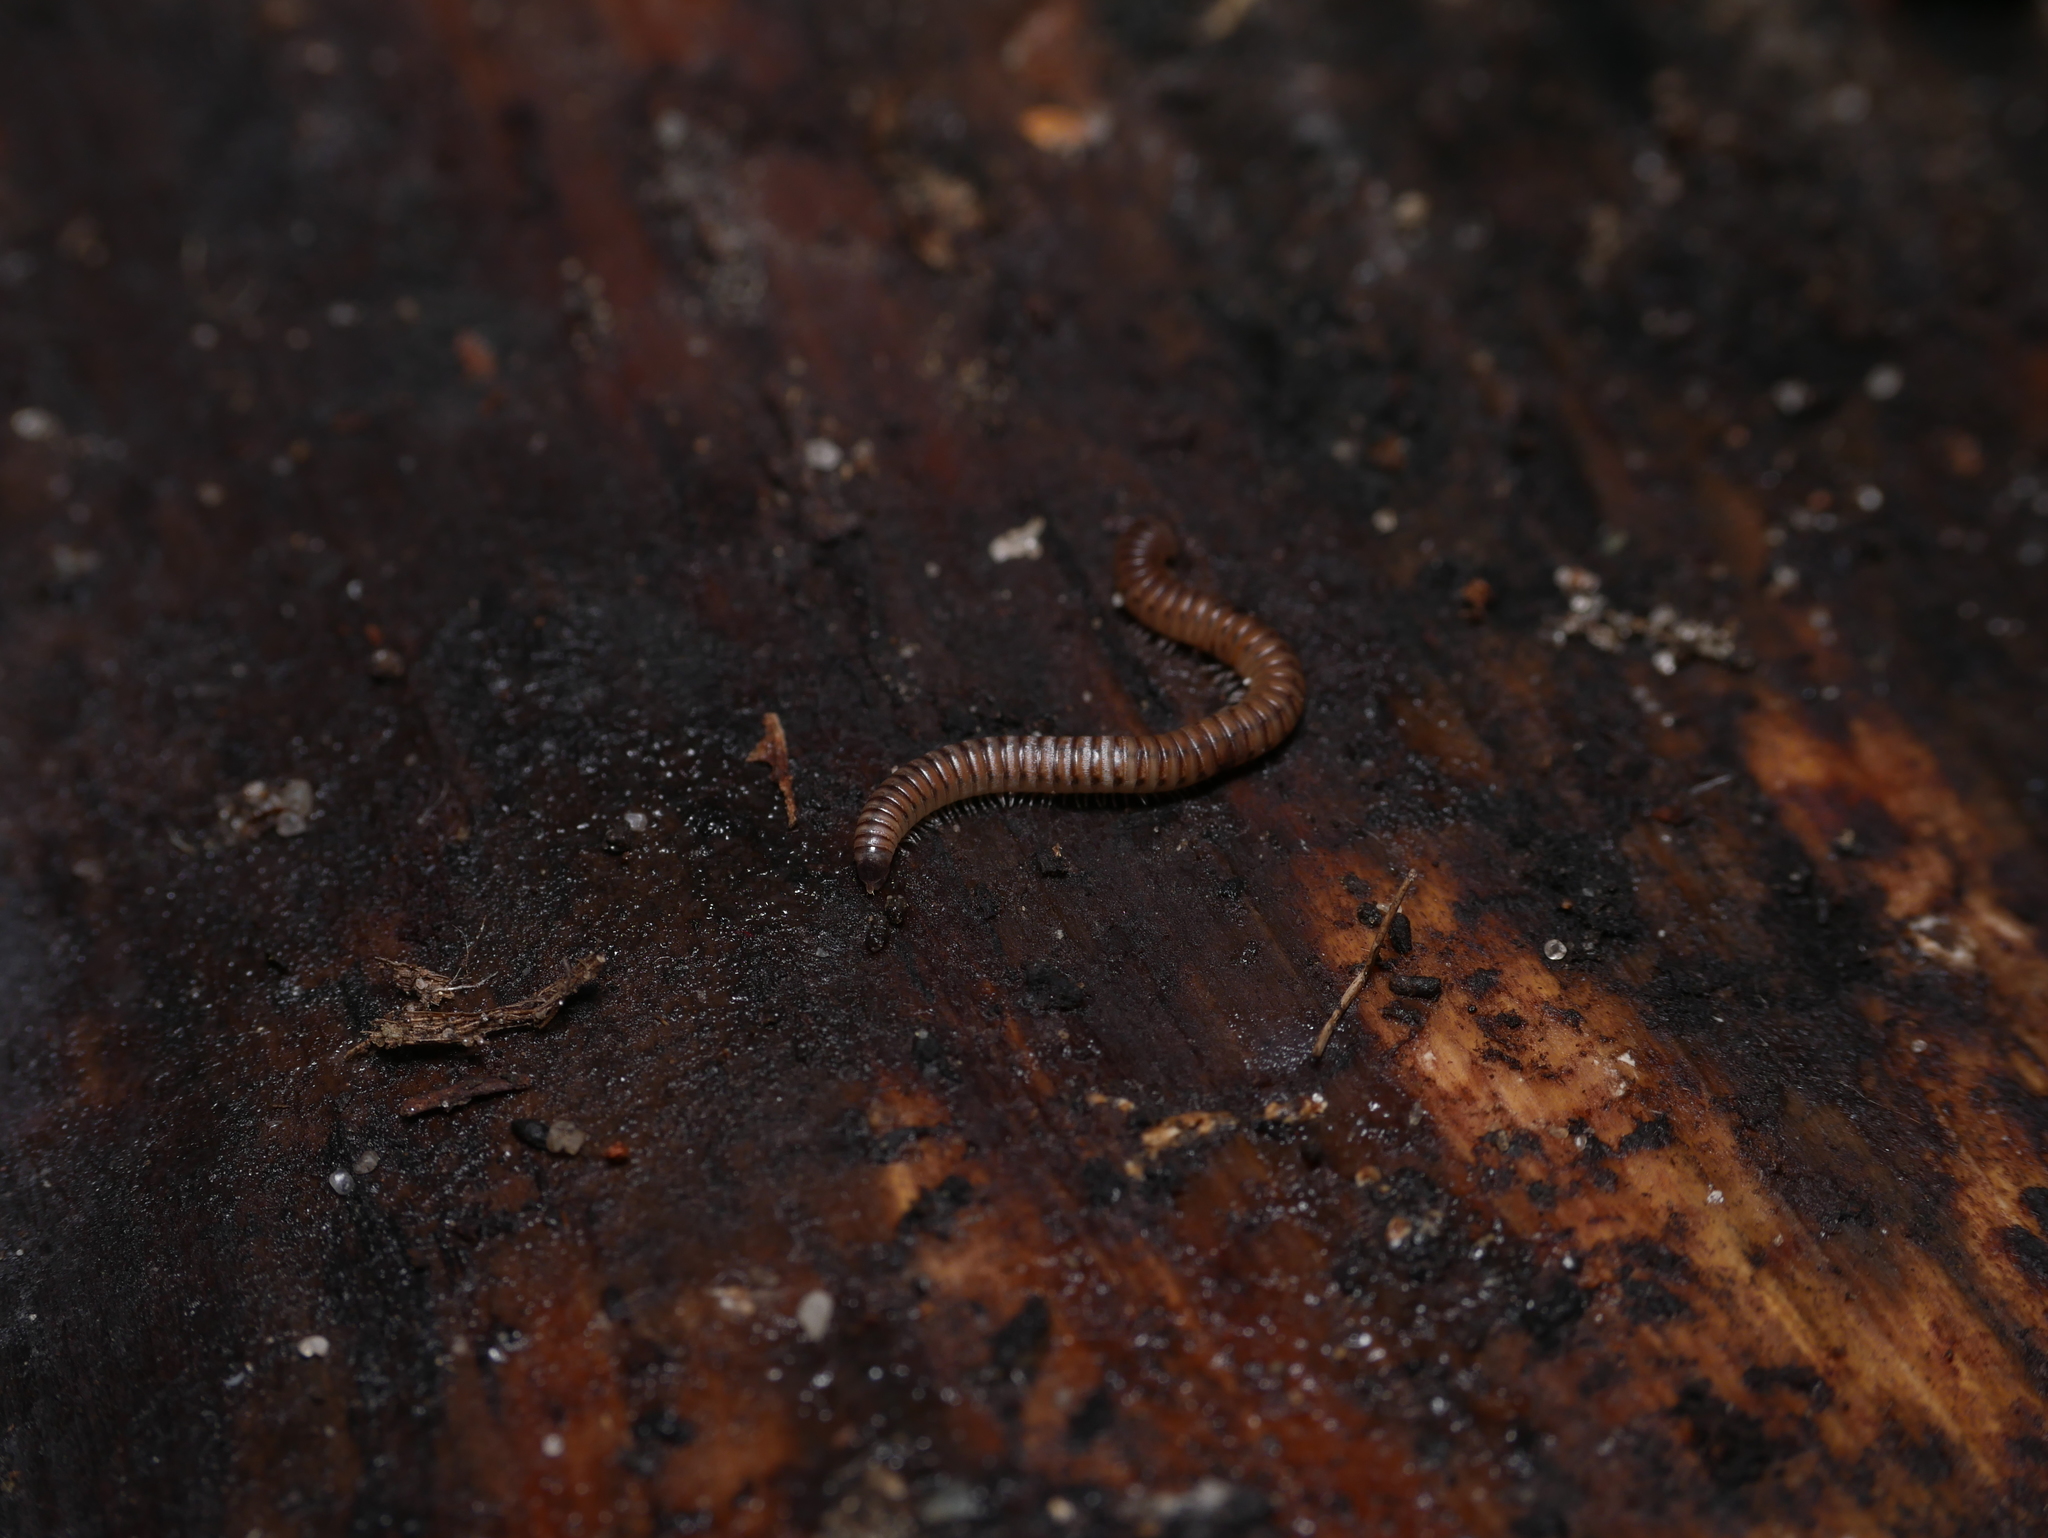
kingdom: Animalia
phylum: Arthropoda
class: Diplopoda
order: Julida
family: Julidae
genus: Cylindroiulus
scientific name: Cylindroiulus punctatus
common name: Blunt-tailed millipede
